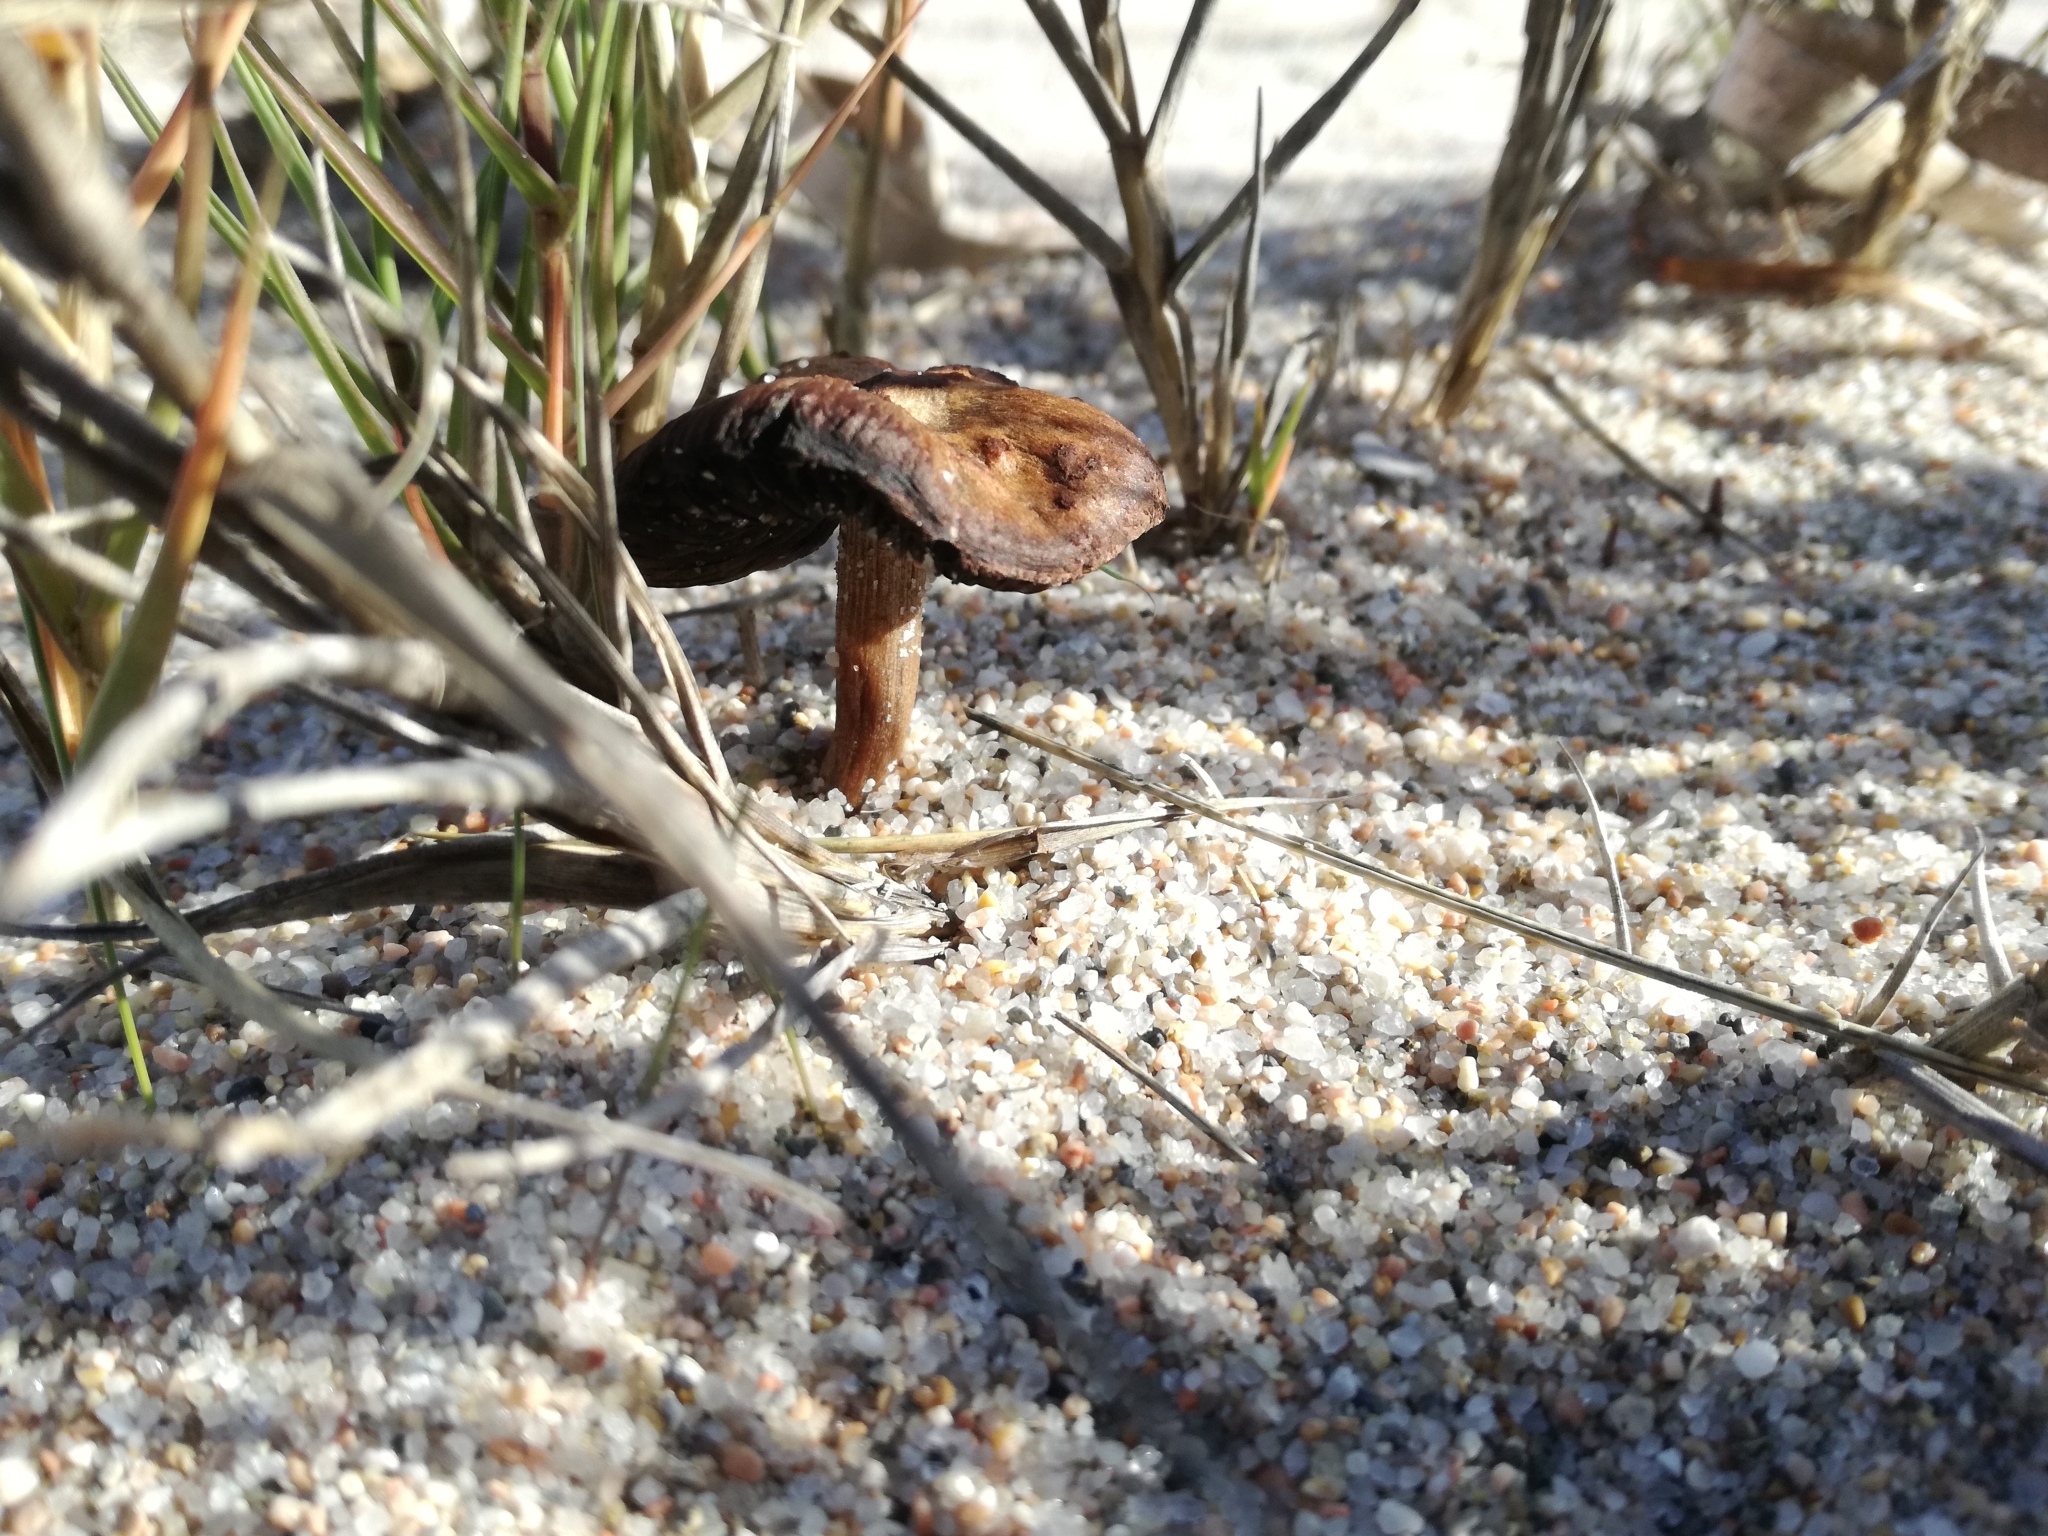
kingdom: Fungi
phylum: Basidiomycota
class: Agaricomycetes
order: Agaricales
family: Psathyrellaceae
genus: Psathyrella
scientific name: Psathyrella ammophila
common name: Dune brittlestem
